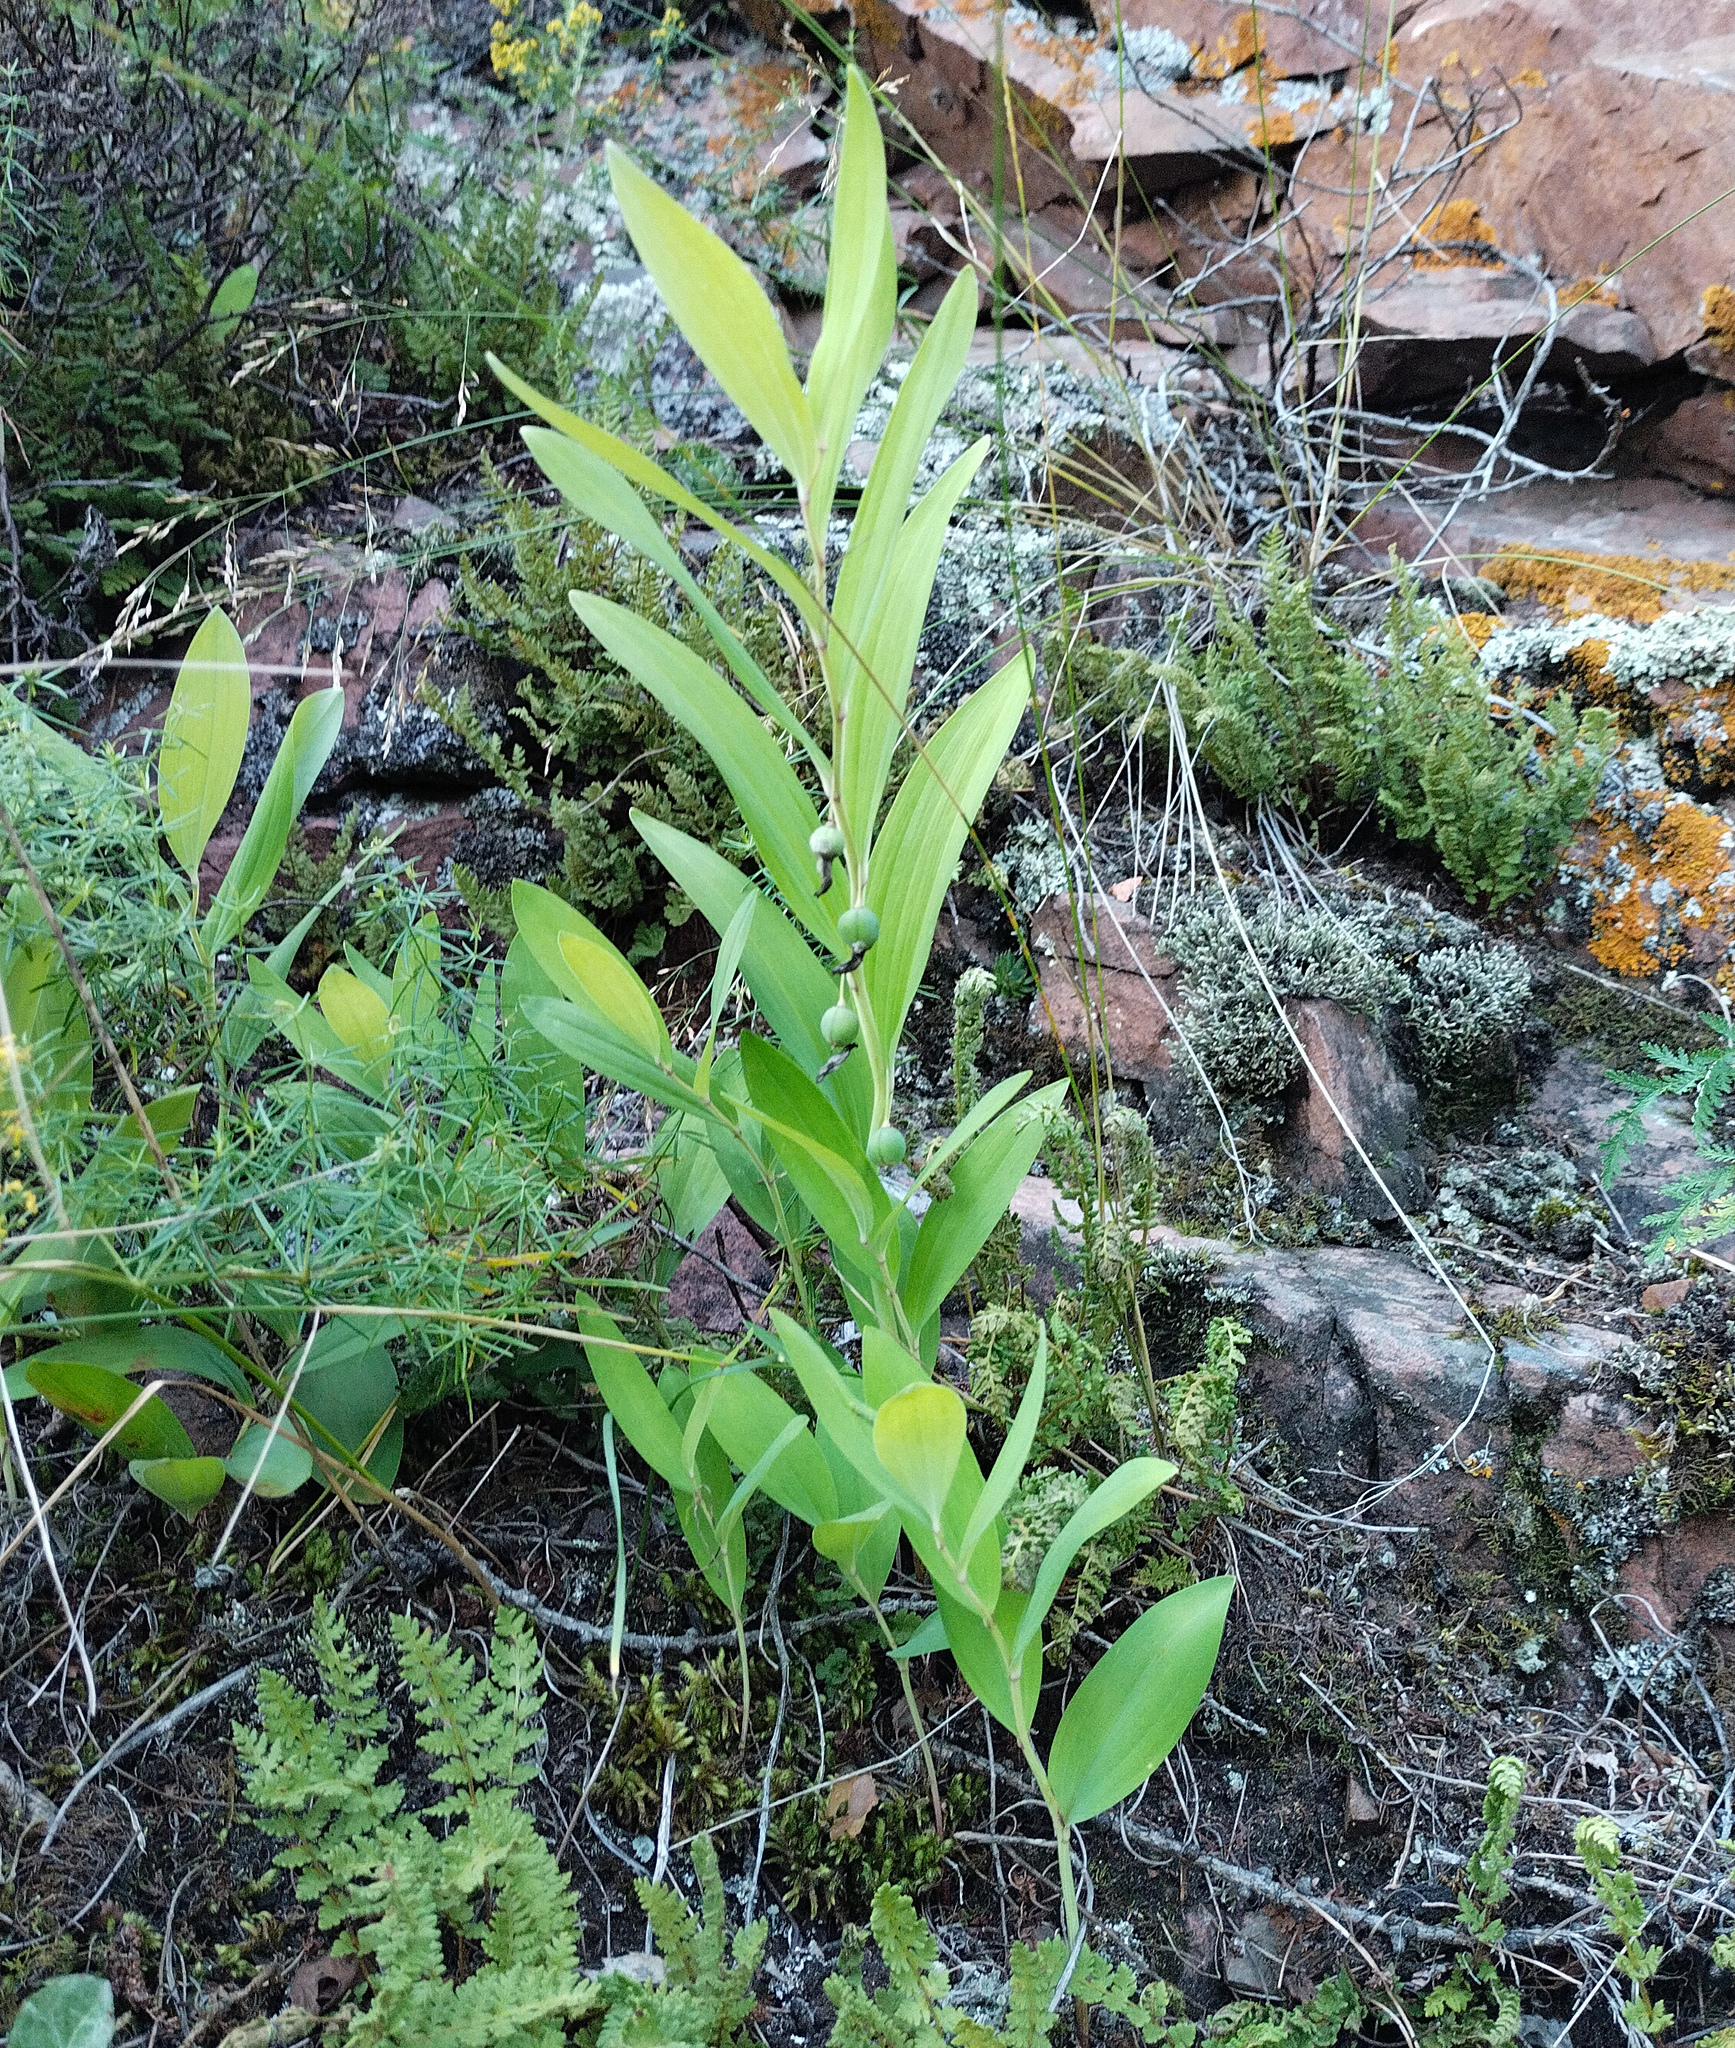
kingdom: Plantae
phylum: Tracheophyta
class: Liliopsida
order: Asparagales
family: Asparagaceae
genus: Polygonatum
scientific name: Polygonatum odoratum
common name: Angular solomon's-seal
